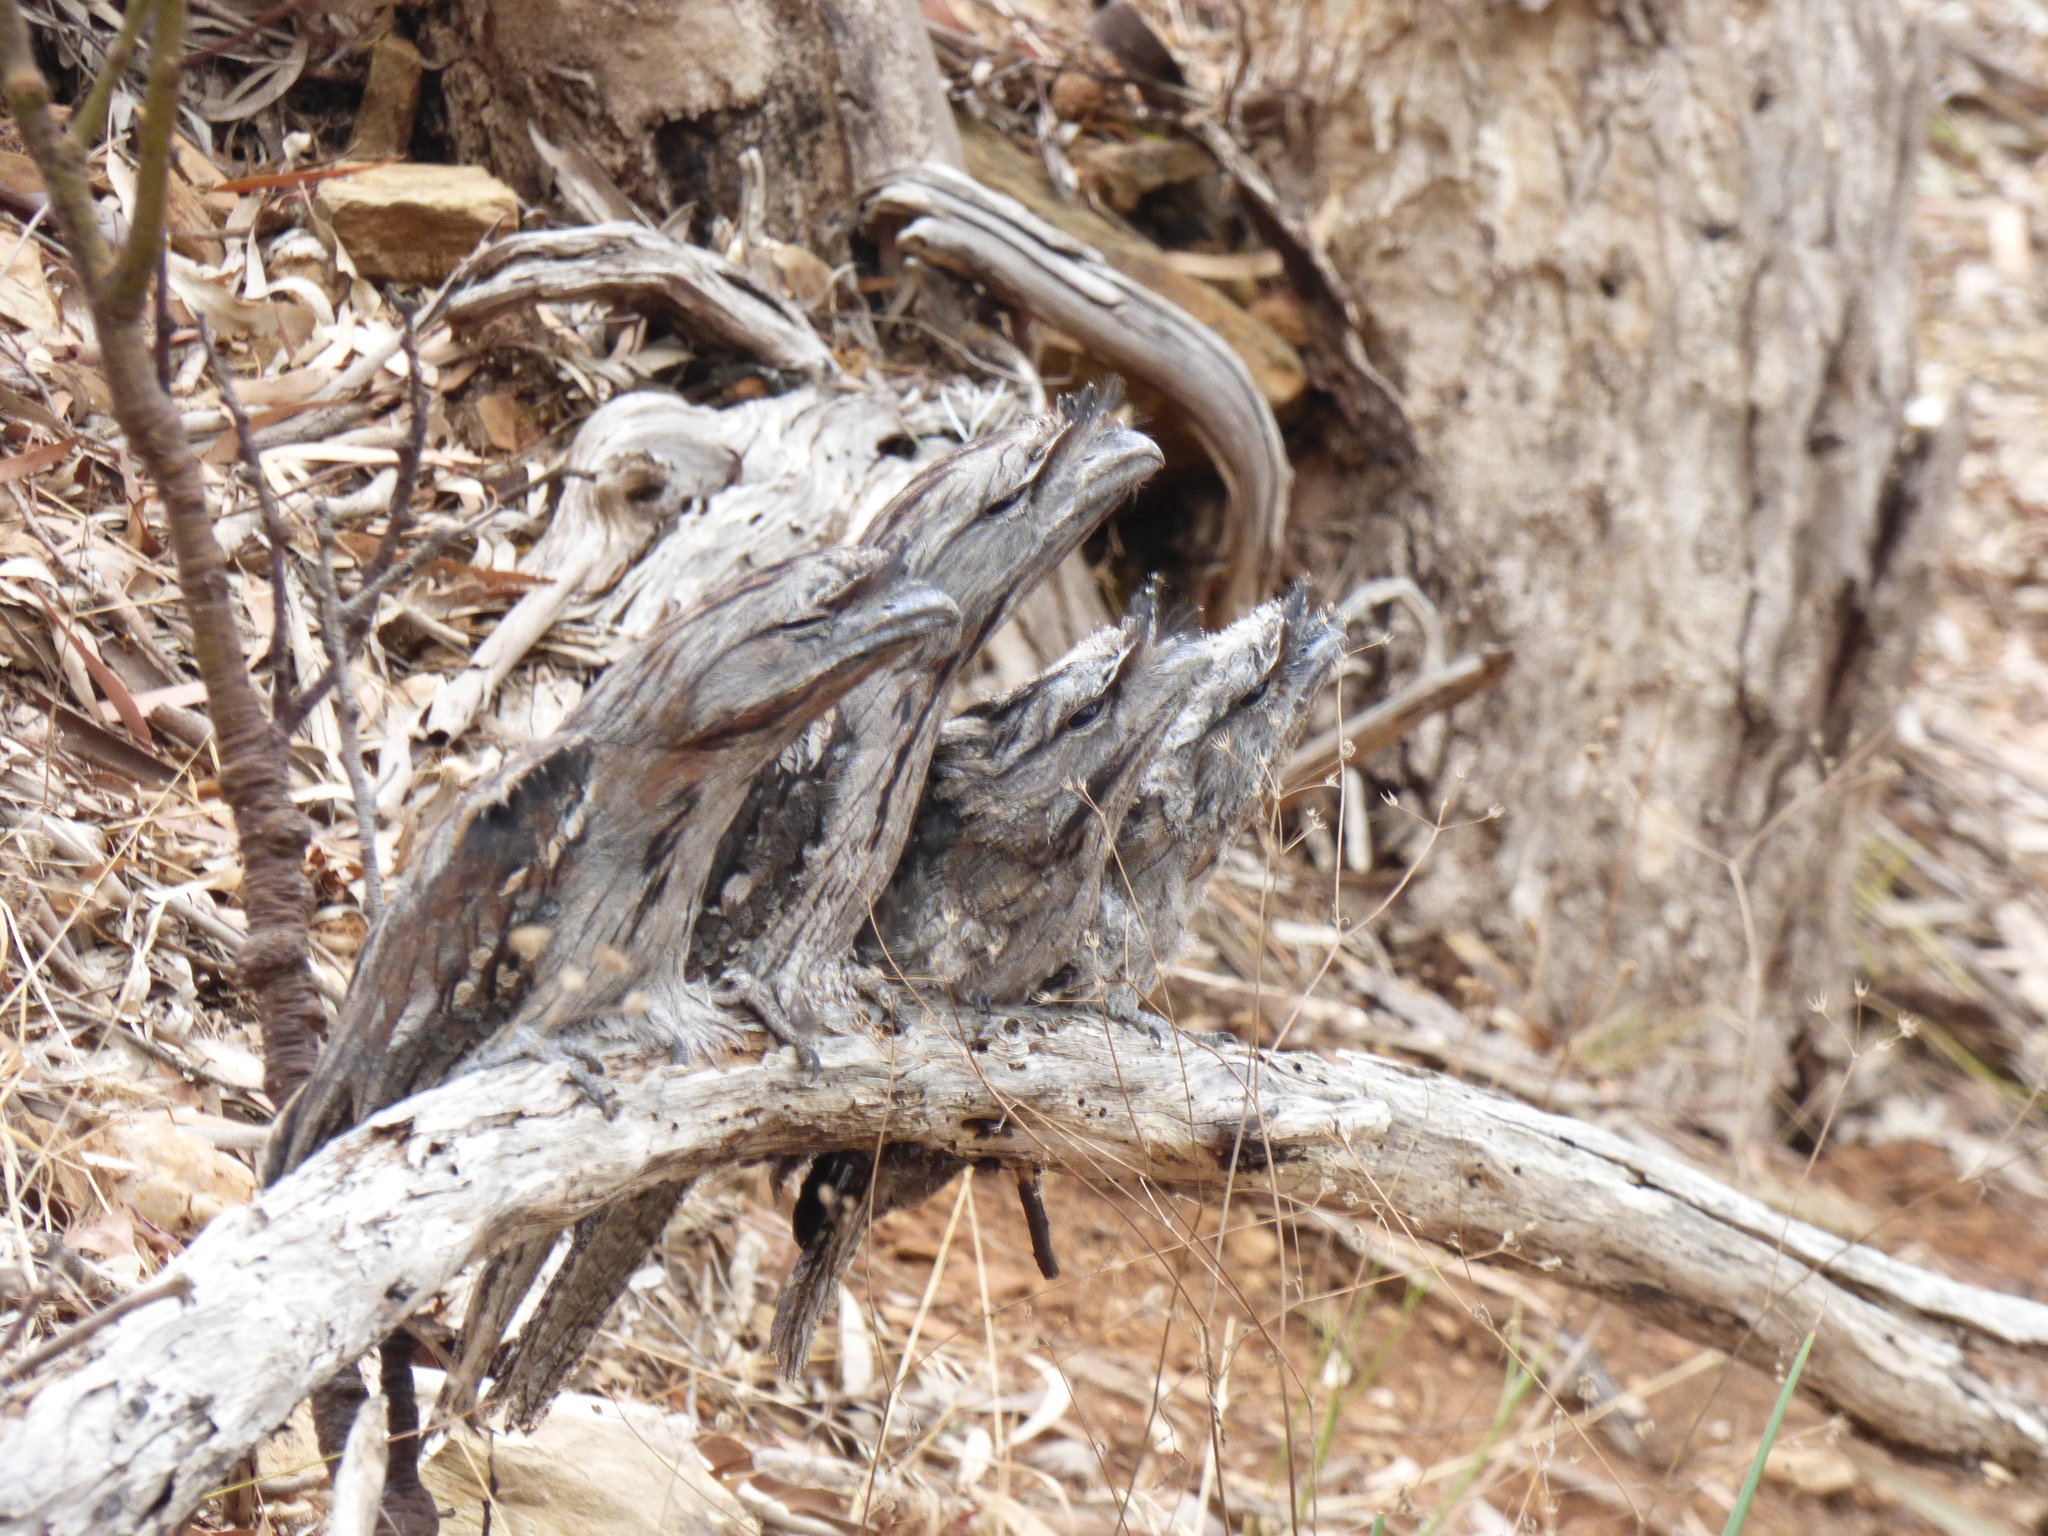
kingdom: Animalia
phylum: Chordata
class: Aves
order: Caprimulgiformes
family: Podargidae
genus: Podargus
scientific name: Podargus strigoides
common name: Tawny frogmouth
